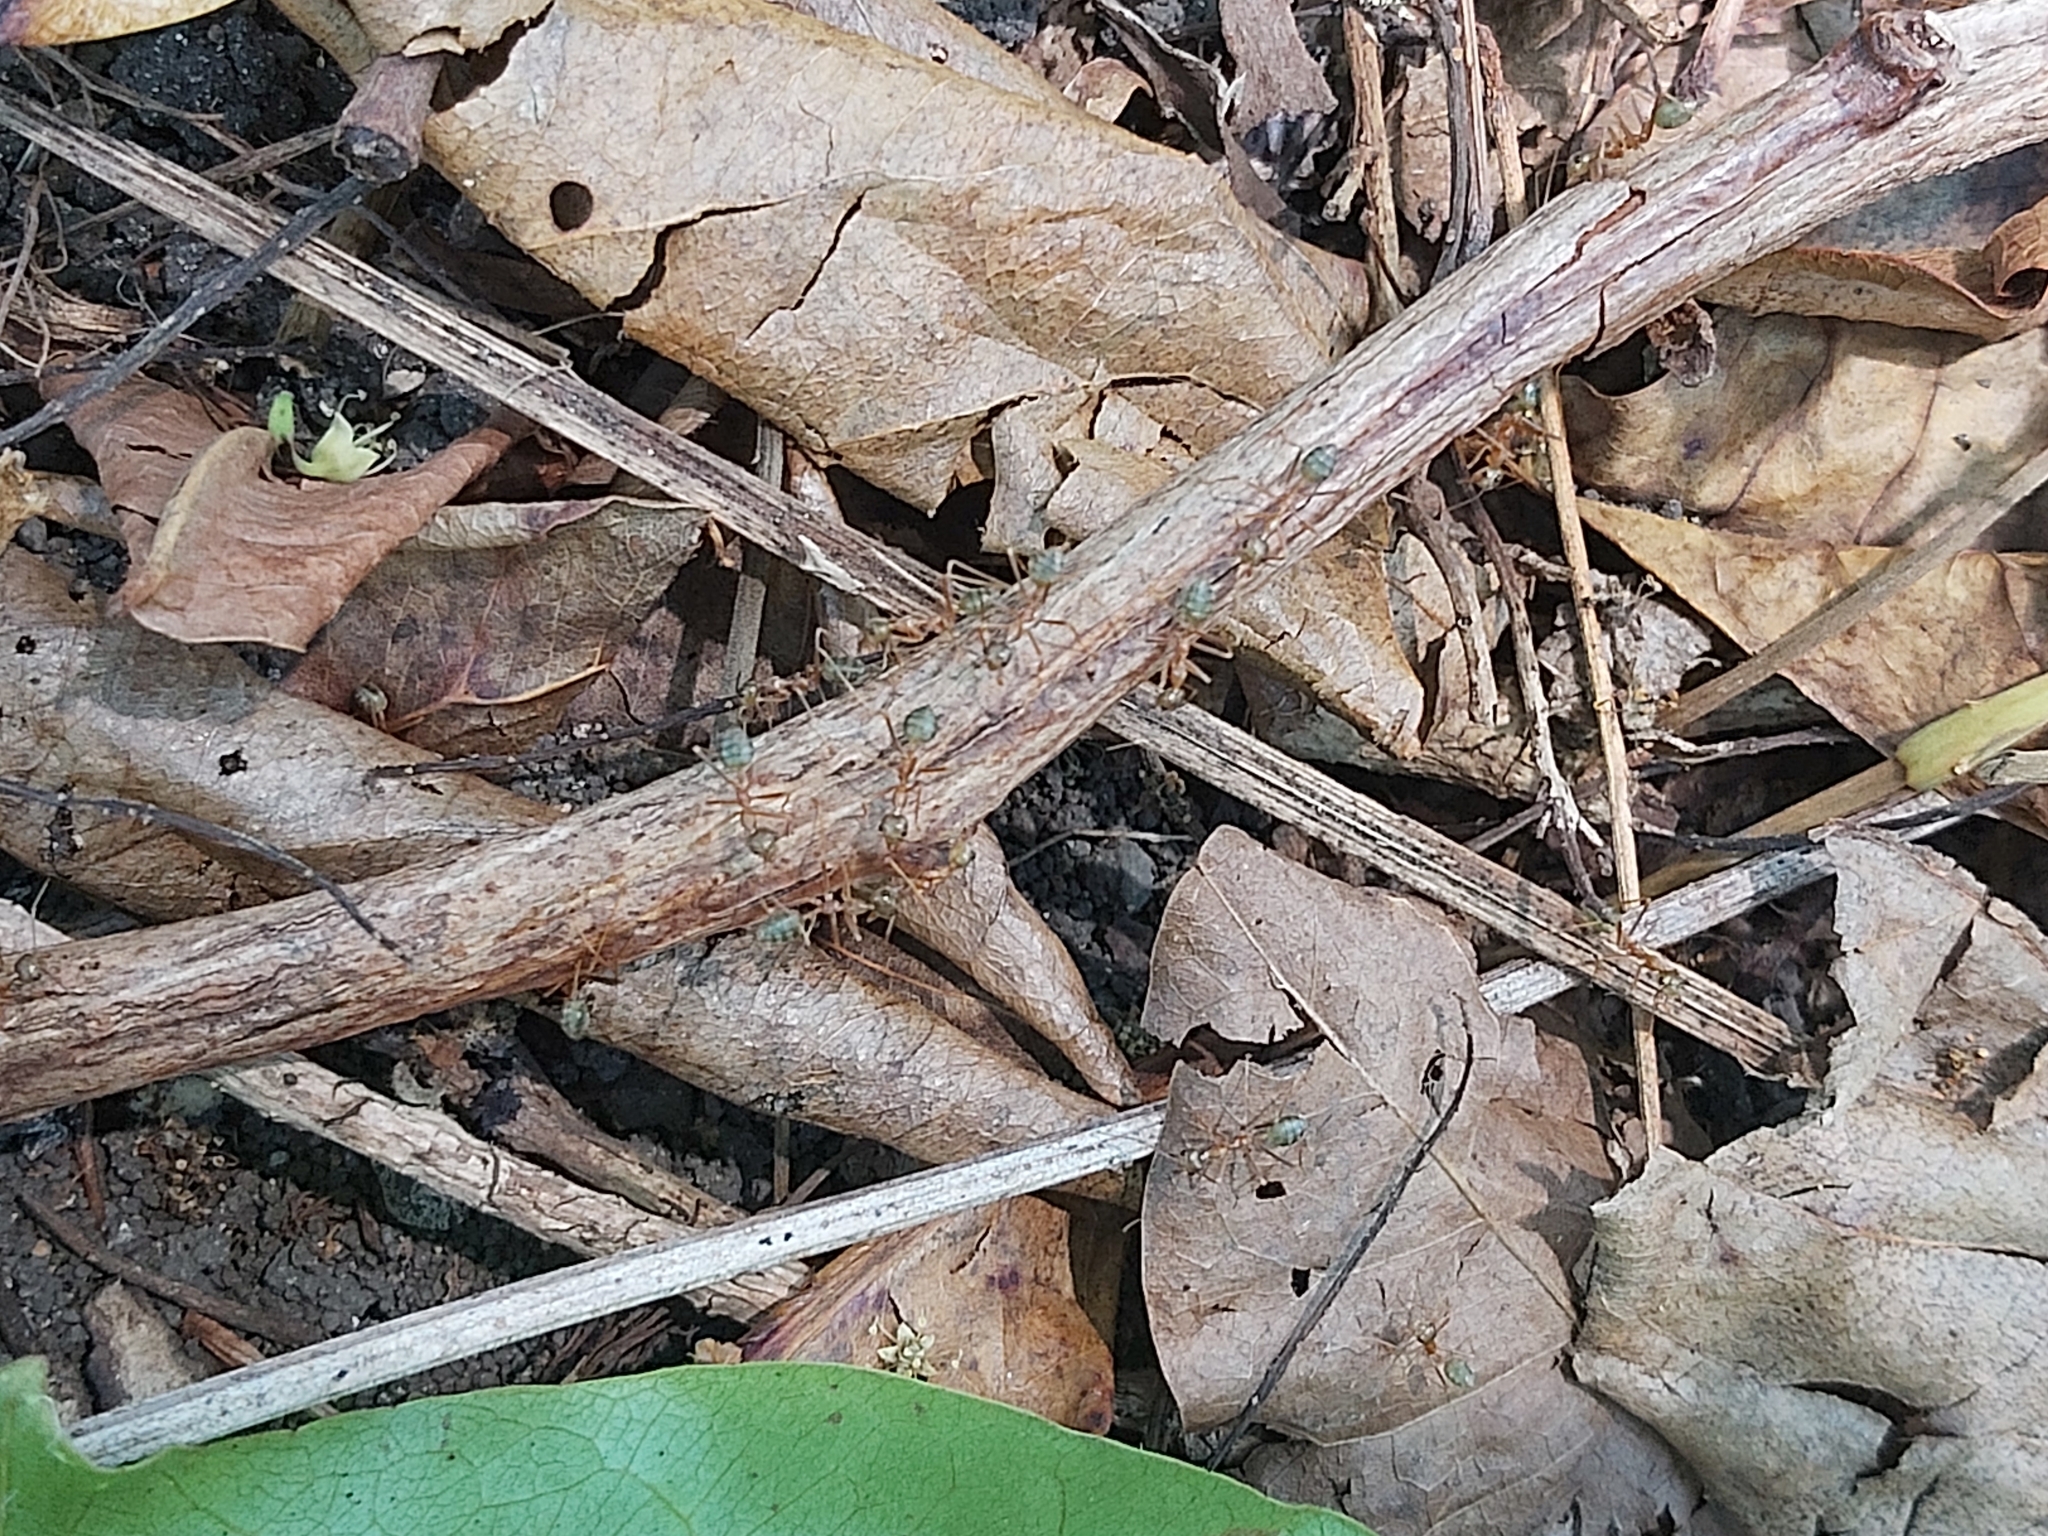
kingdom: Animalia
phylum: Arthropoda
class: Insecta
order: Hymenoptera
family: Formicidae
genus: Oecophylla
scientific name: Oecophylla smaragdina
